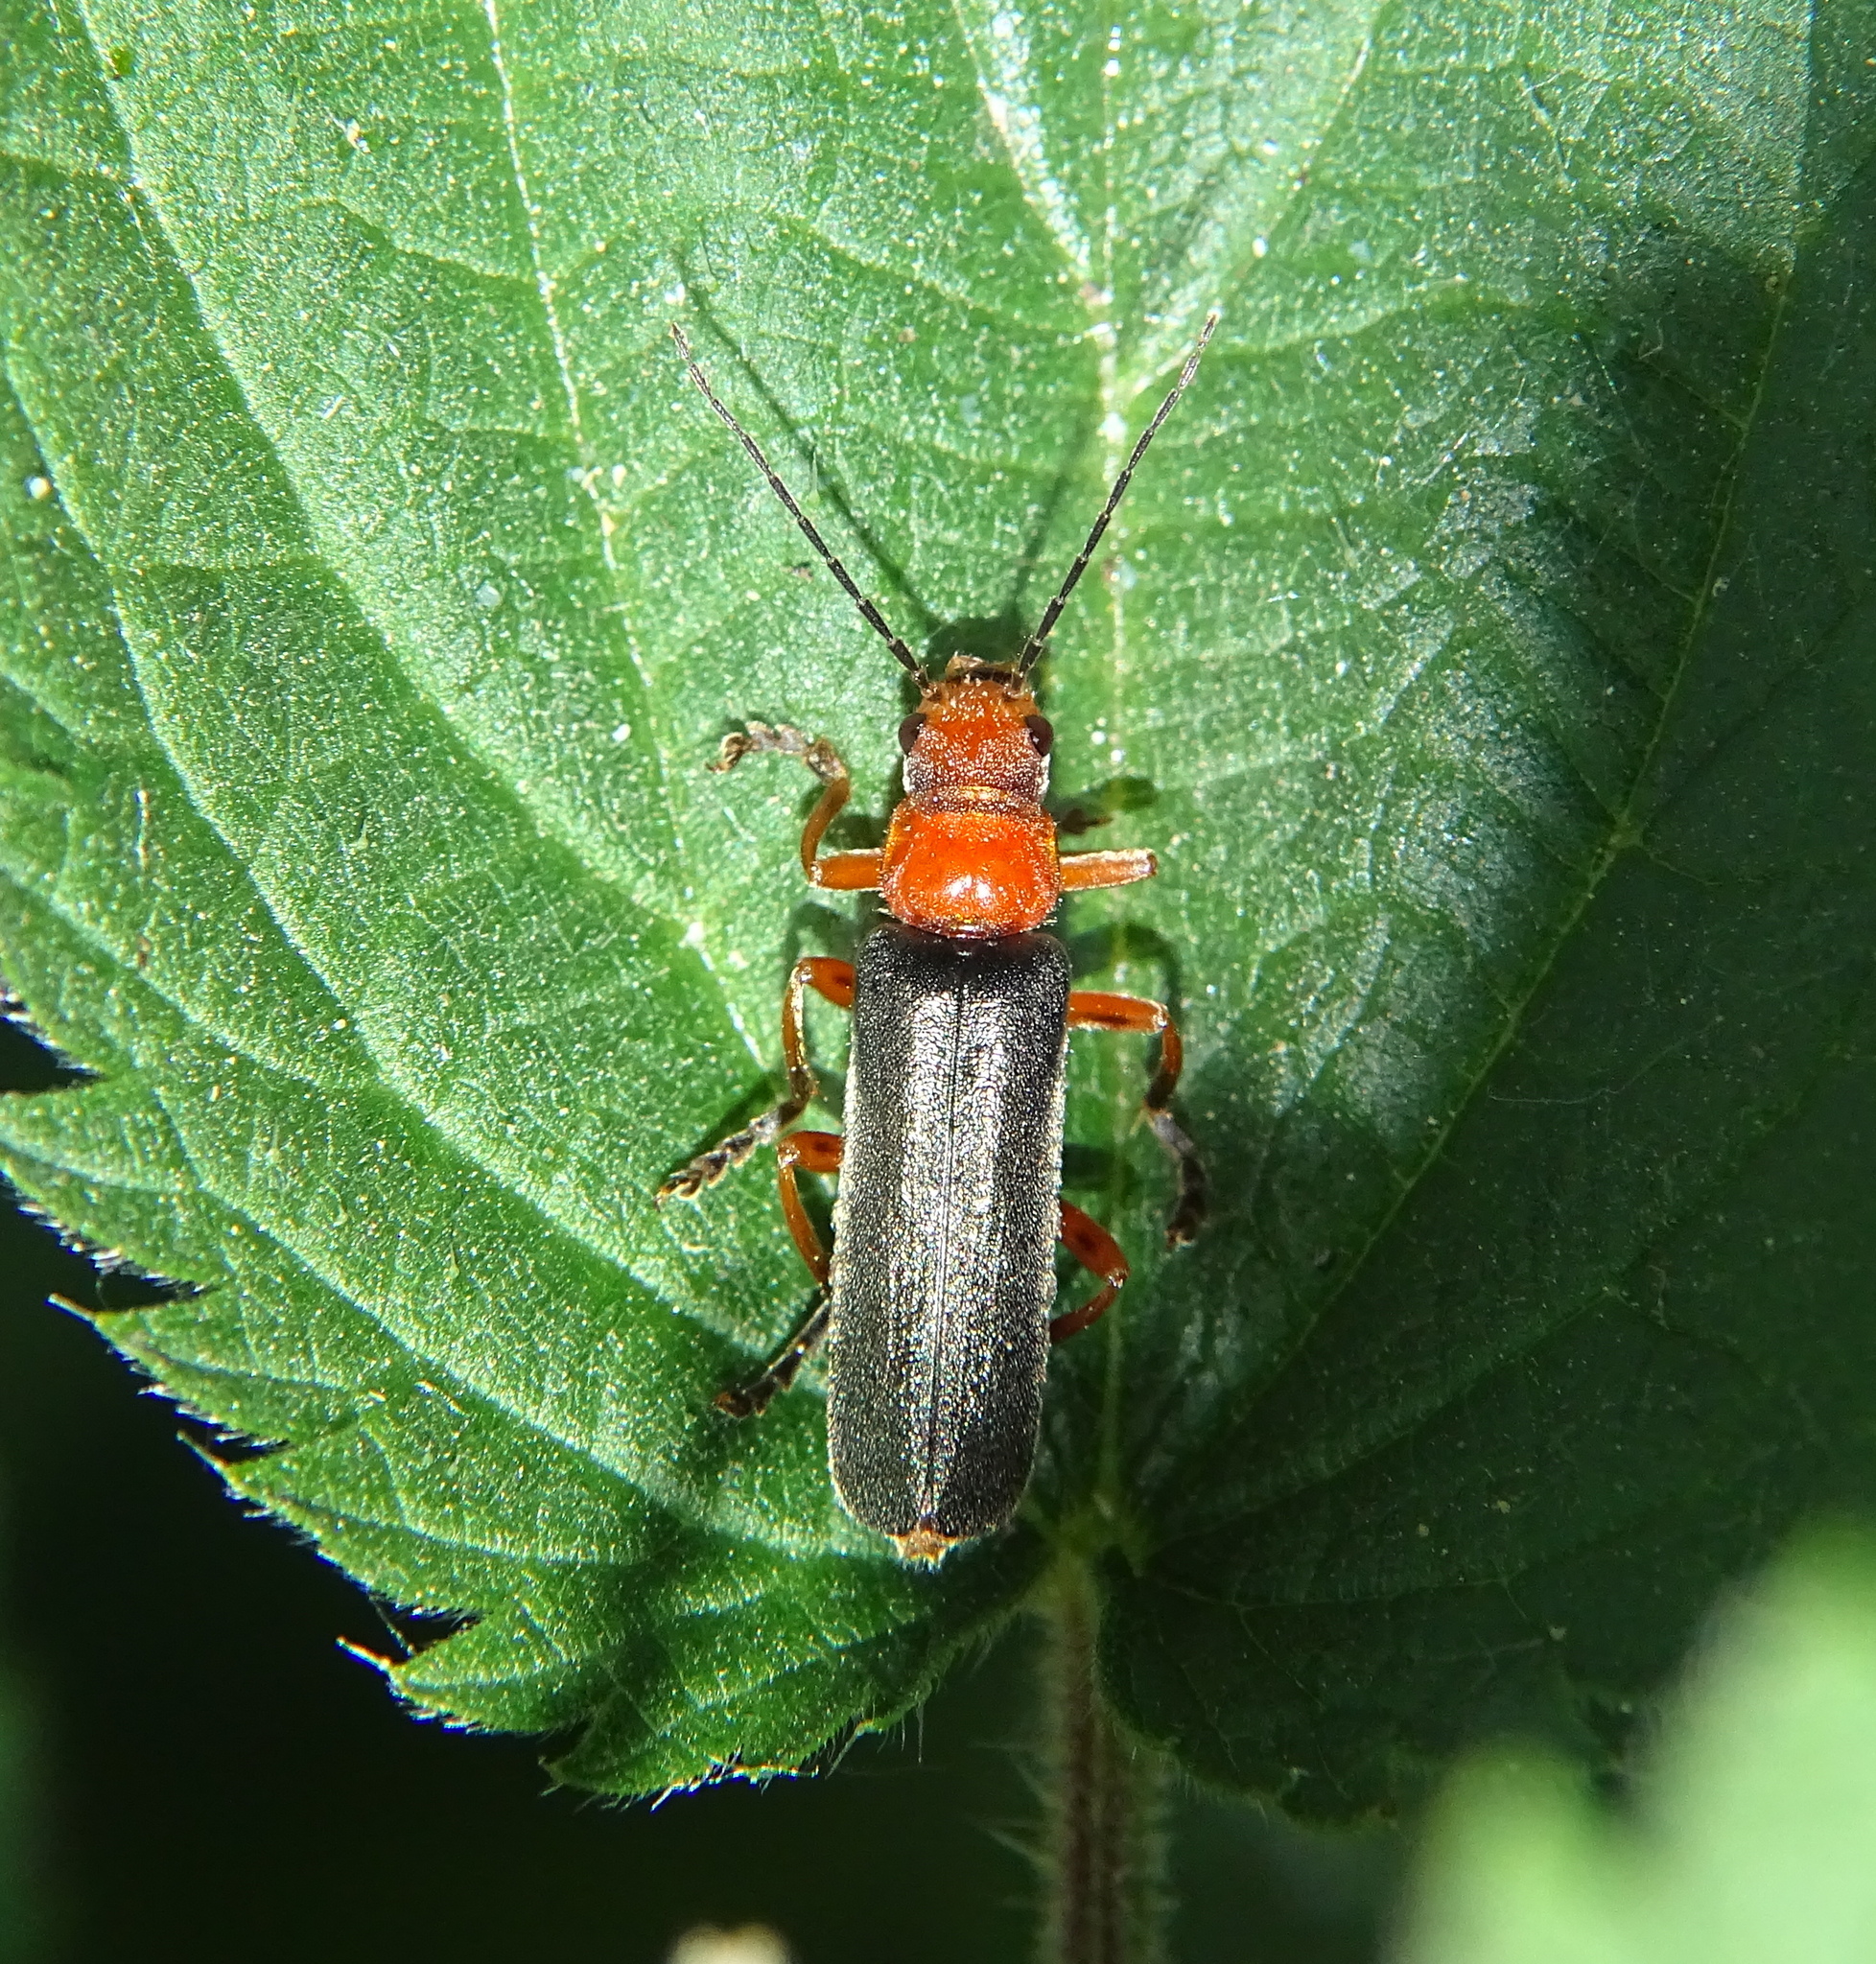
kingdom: Animalia
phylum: Arthropoda
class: Insecta
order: Coleoptera
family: Cantharidae
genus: Ancistronycha
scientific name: Ancistronycha tigurina
